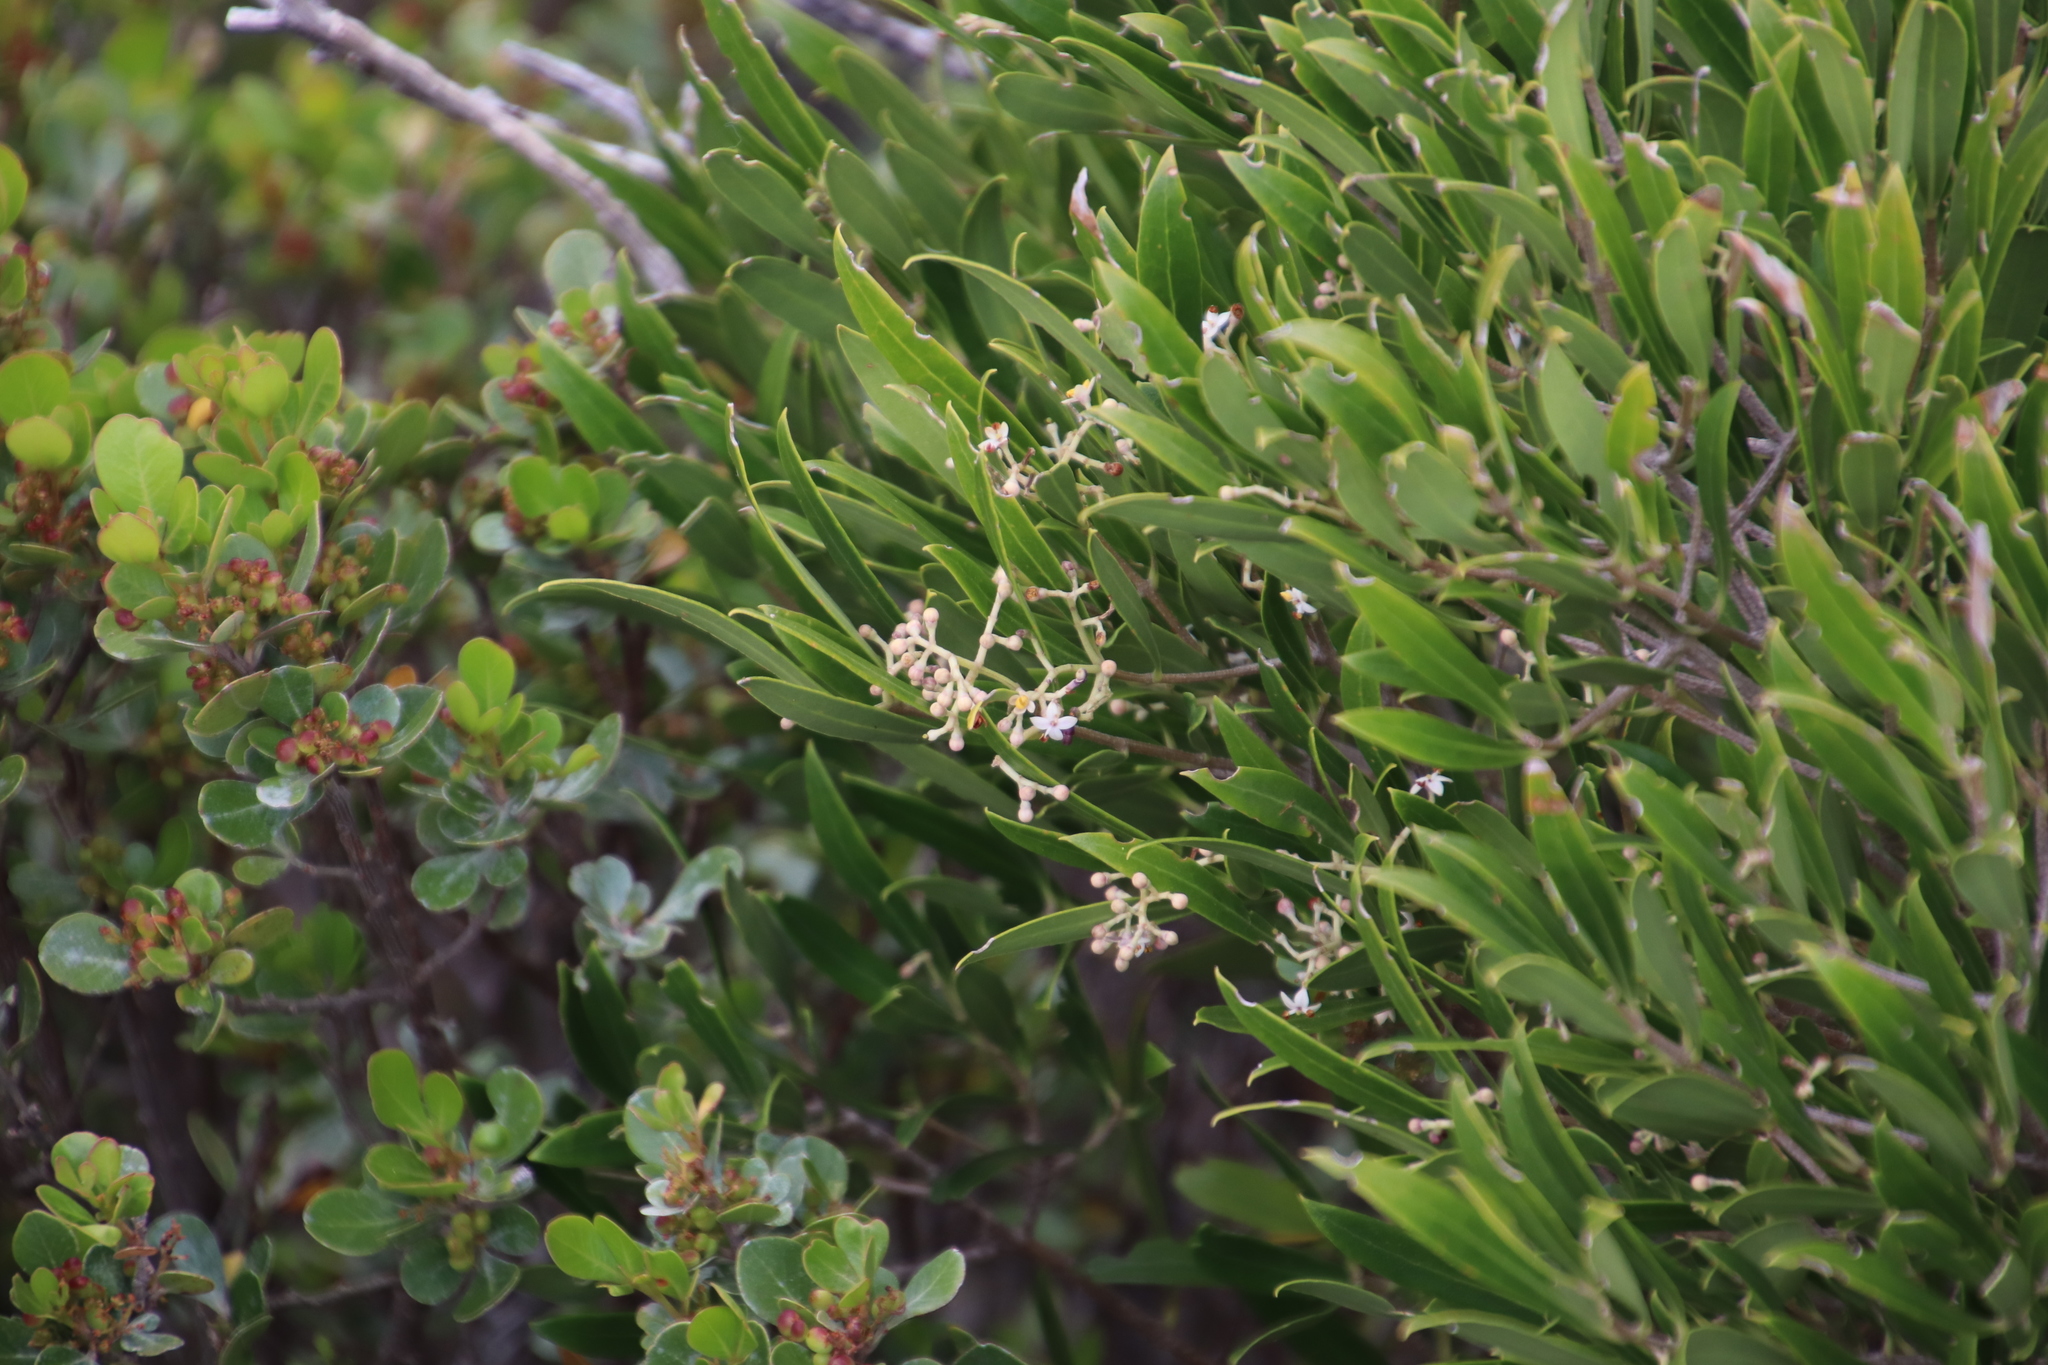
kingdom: Plantae
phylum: Tracheophyta
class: Magnoliopsida
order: Lamiales
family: Oleaceae
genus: Olea
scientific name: Olea exasperata
